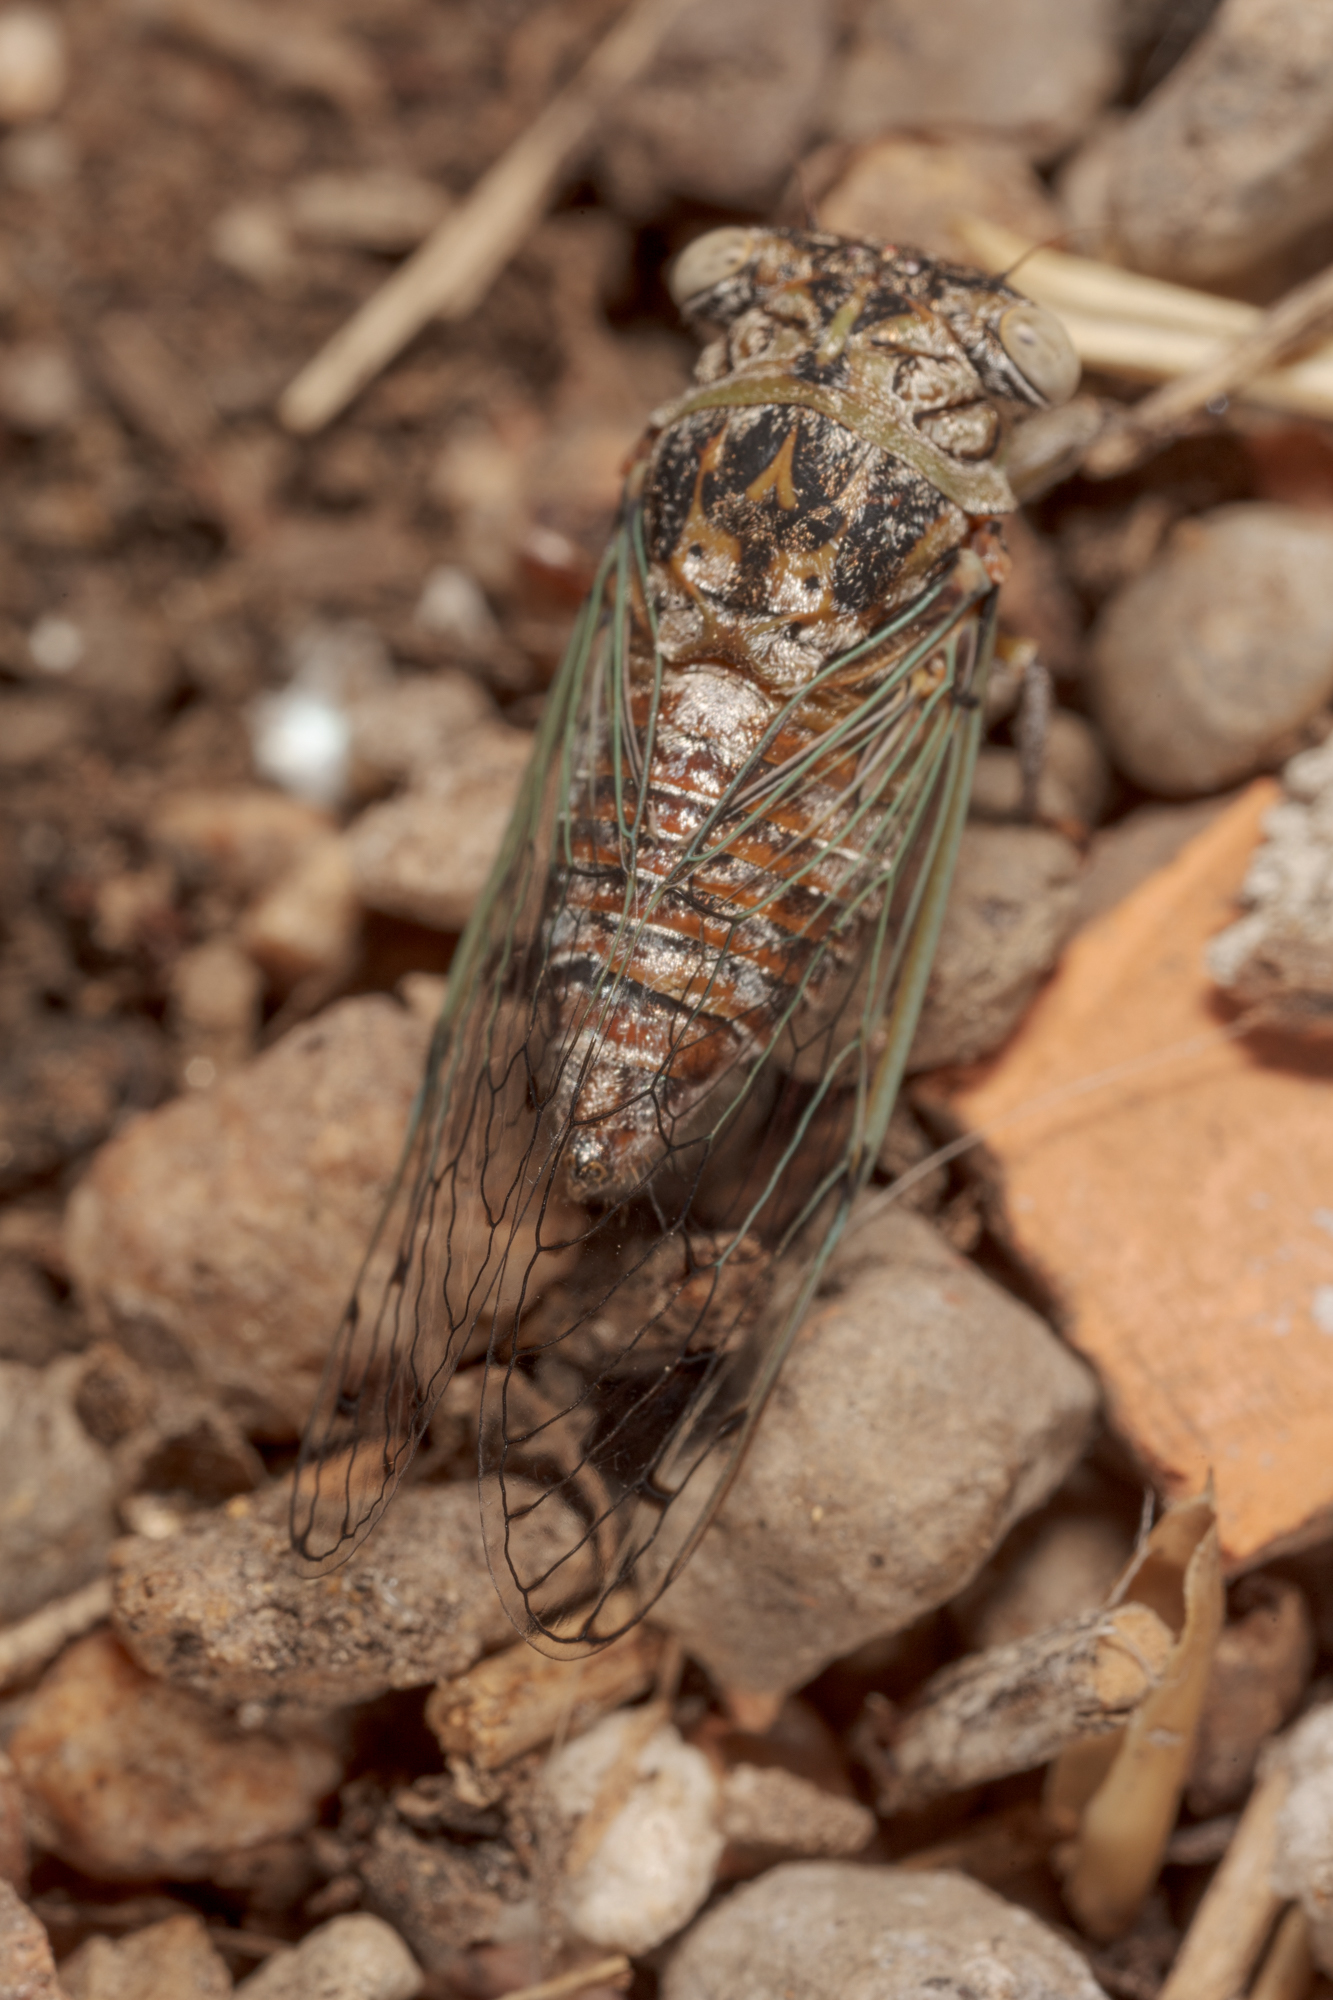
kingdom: Animalia
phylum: Arthropoda
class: Insecta
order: Hemiptera
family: Cicadidae
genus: Pacarina
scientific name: Pacarina puella
